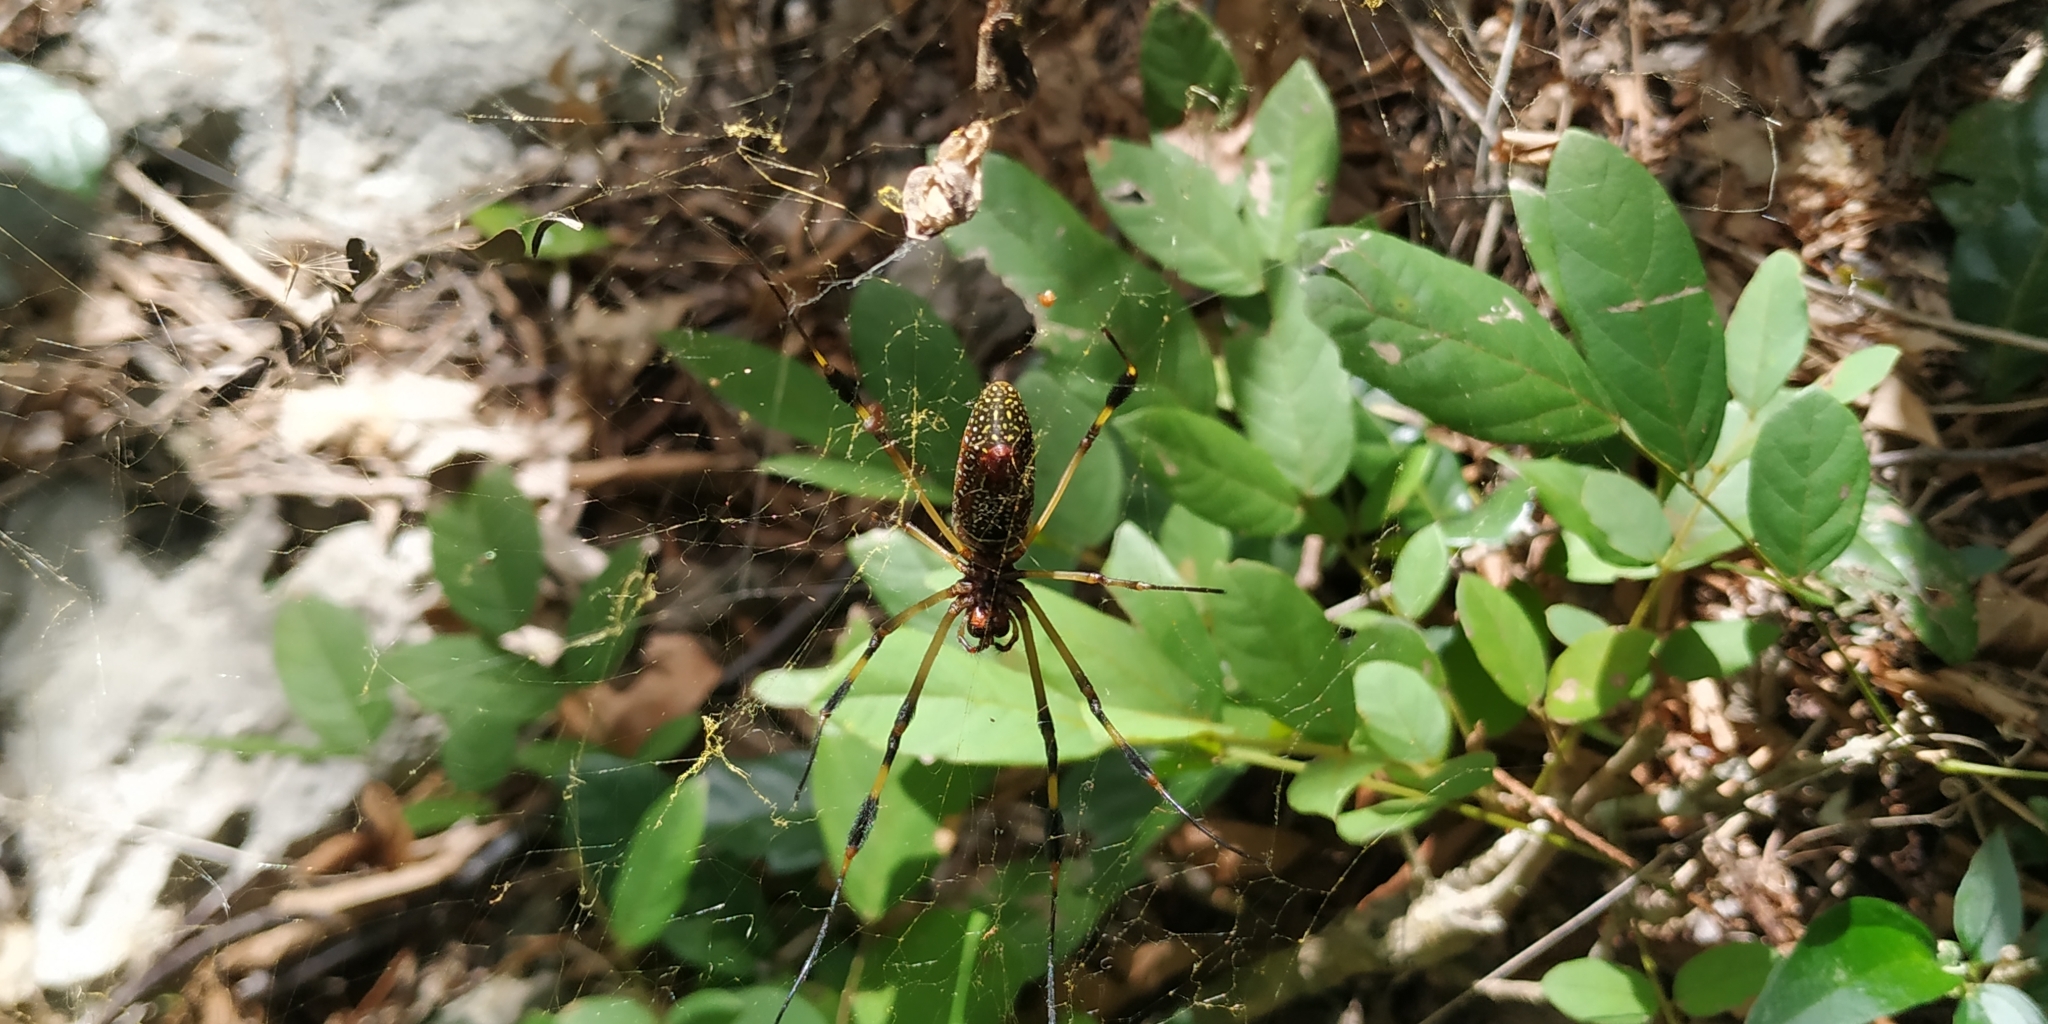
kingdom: Animalia
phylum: Arthropoda
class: Arachnida
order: Araneae
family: Araneidae
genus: Trichonephila
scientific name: Trichonephila clavipes
